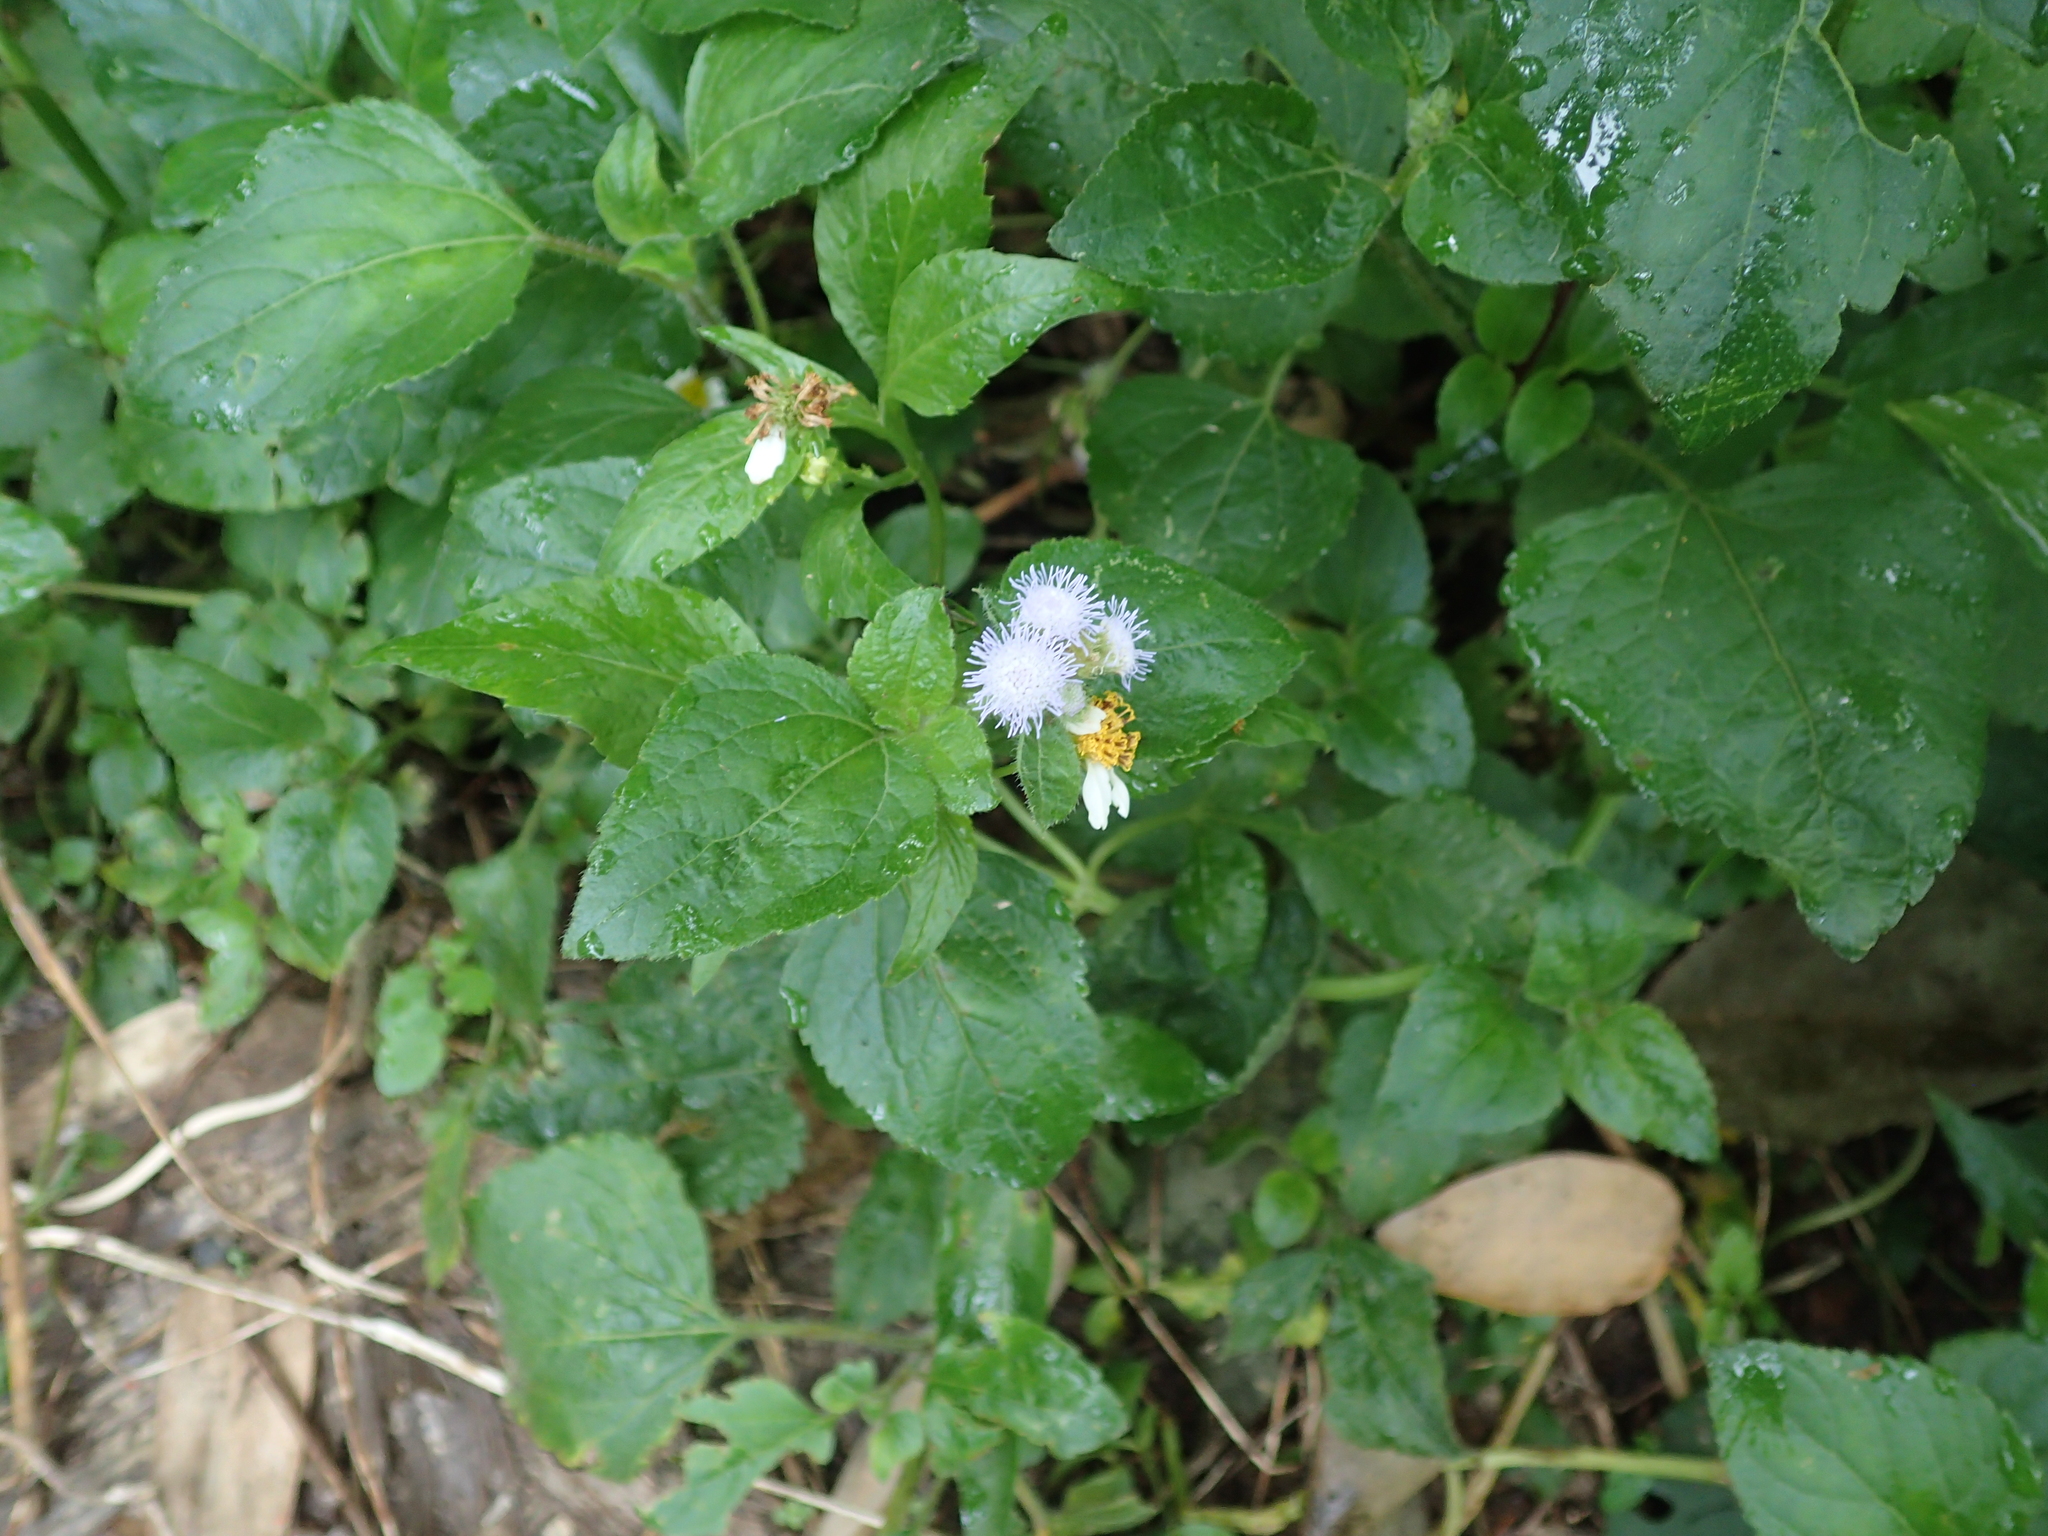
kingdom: Plantae
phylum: Tracheophyta
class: Magnoliopsida
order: Asterales
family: Asteraceae
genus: Ageratum
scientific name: Ageratum houstonianum
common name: Bluemink
